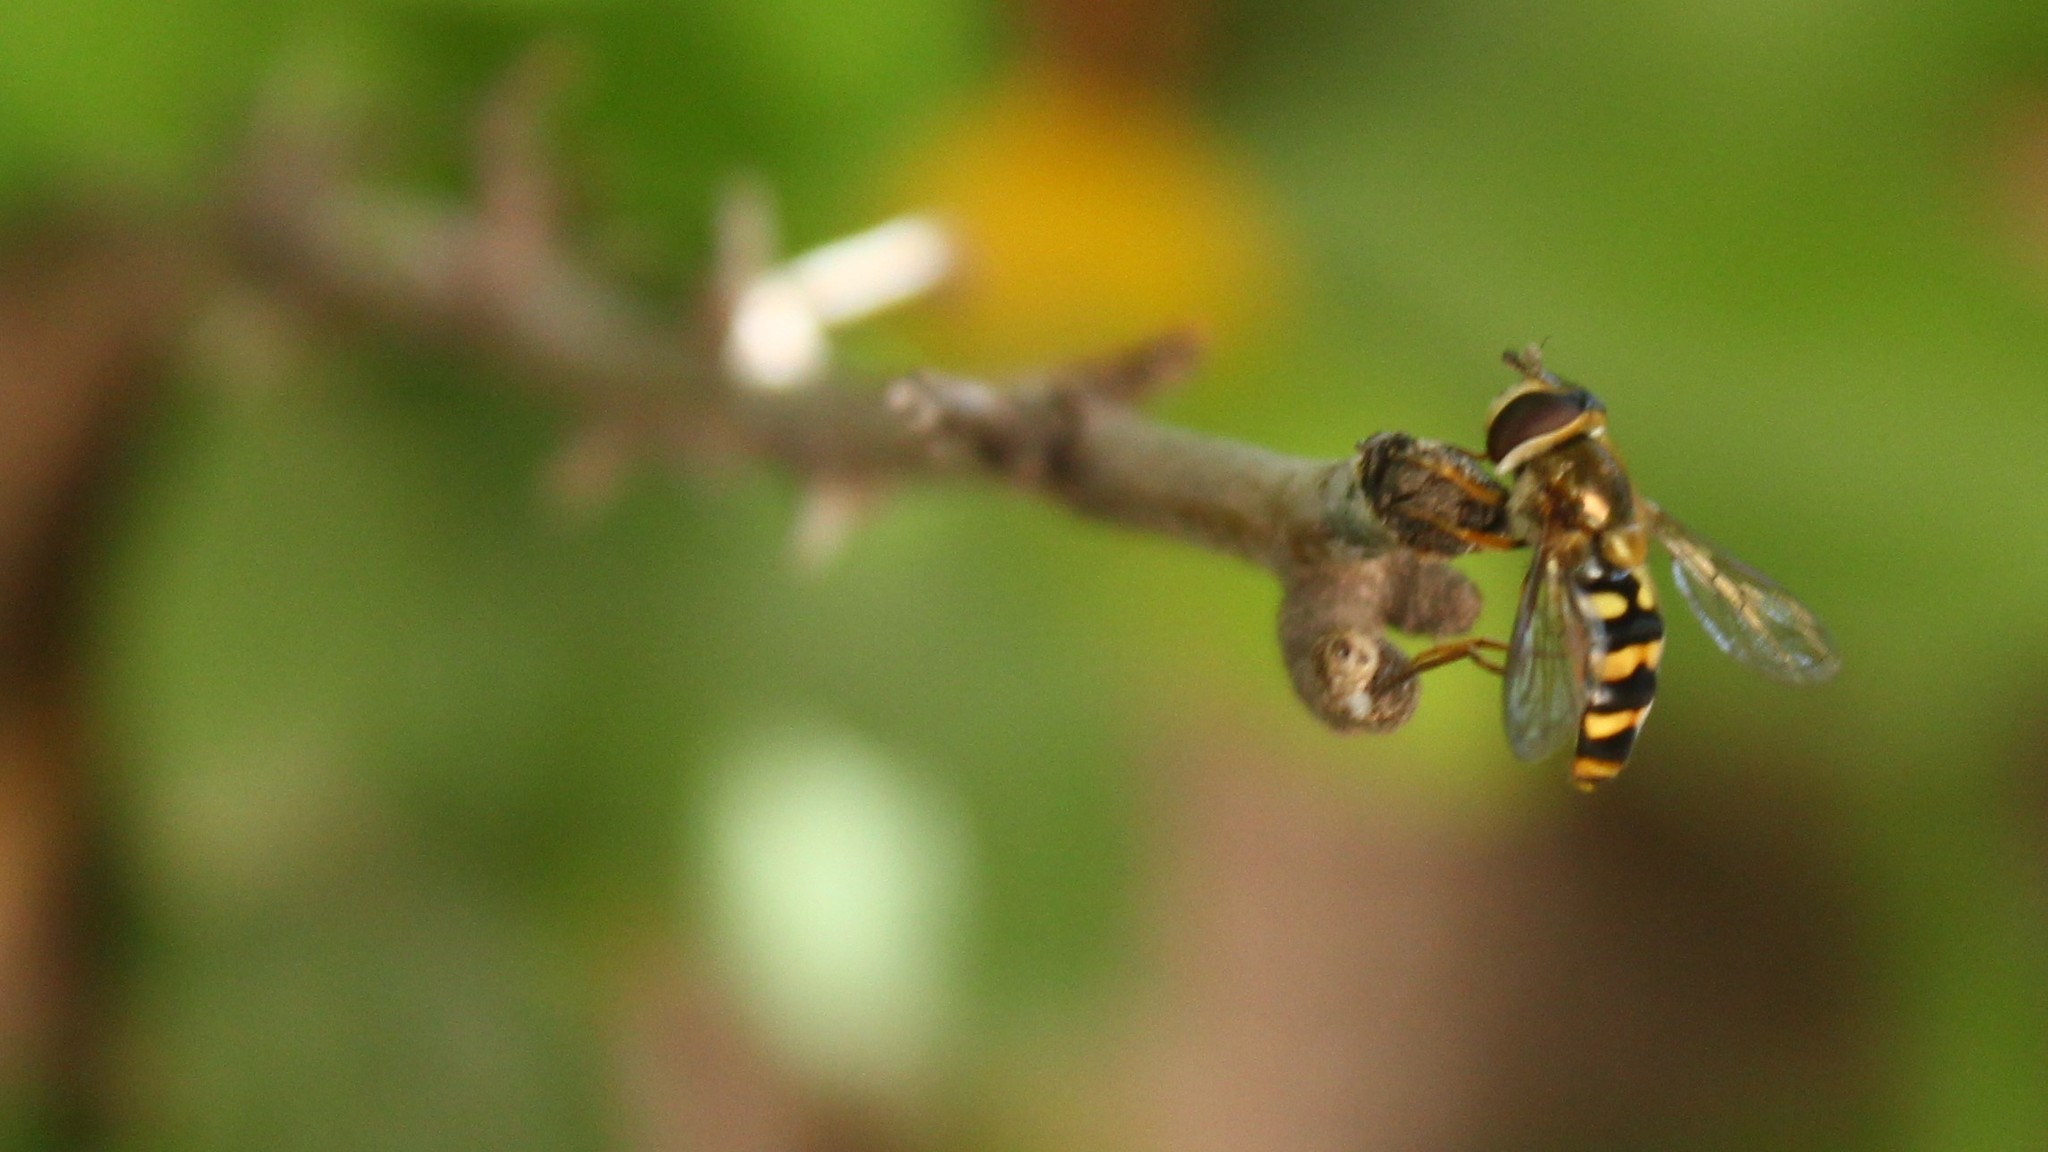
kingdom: Animalia
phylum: Arthropoda
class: Insecta
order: Diptera
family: Syrphidae
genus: Eupeodes
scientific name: Eupeodes fumipennis
